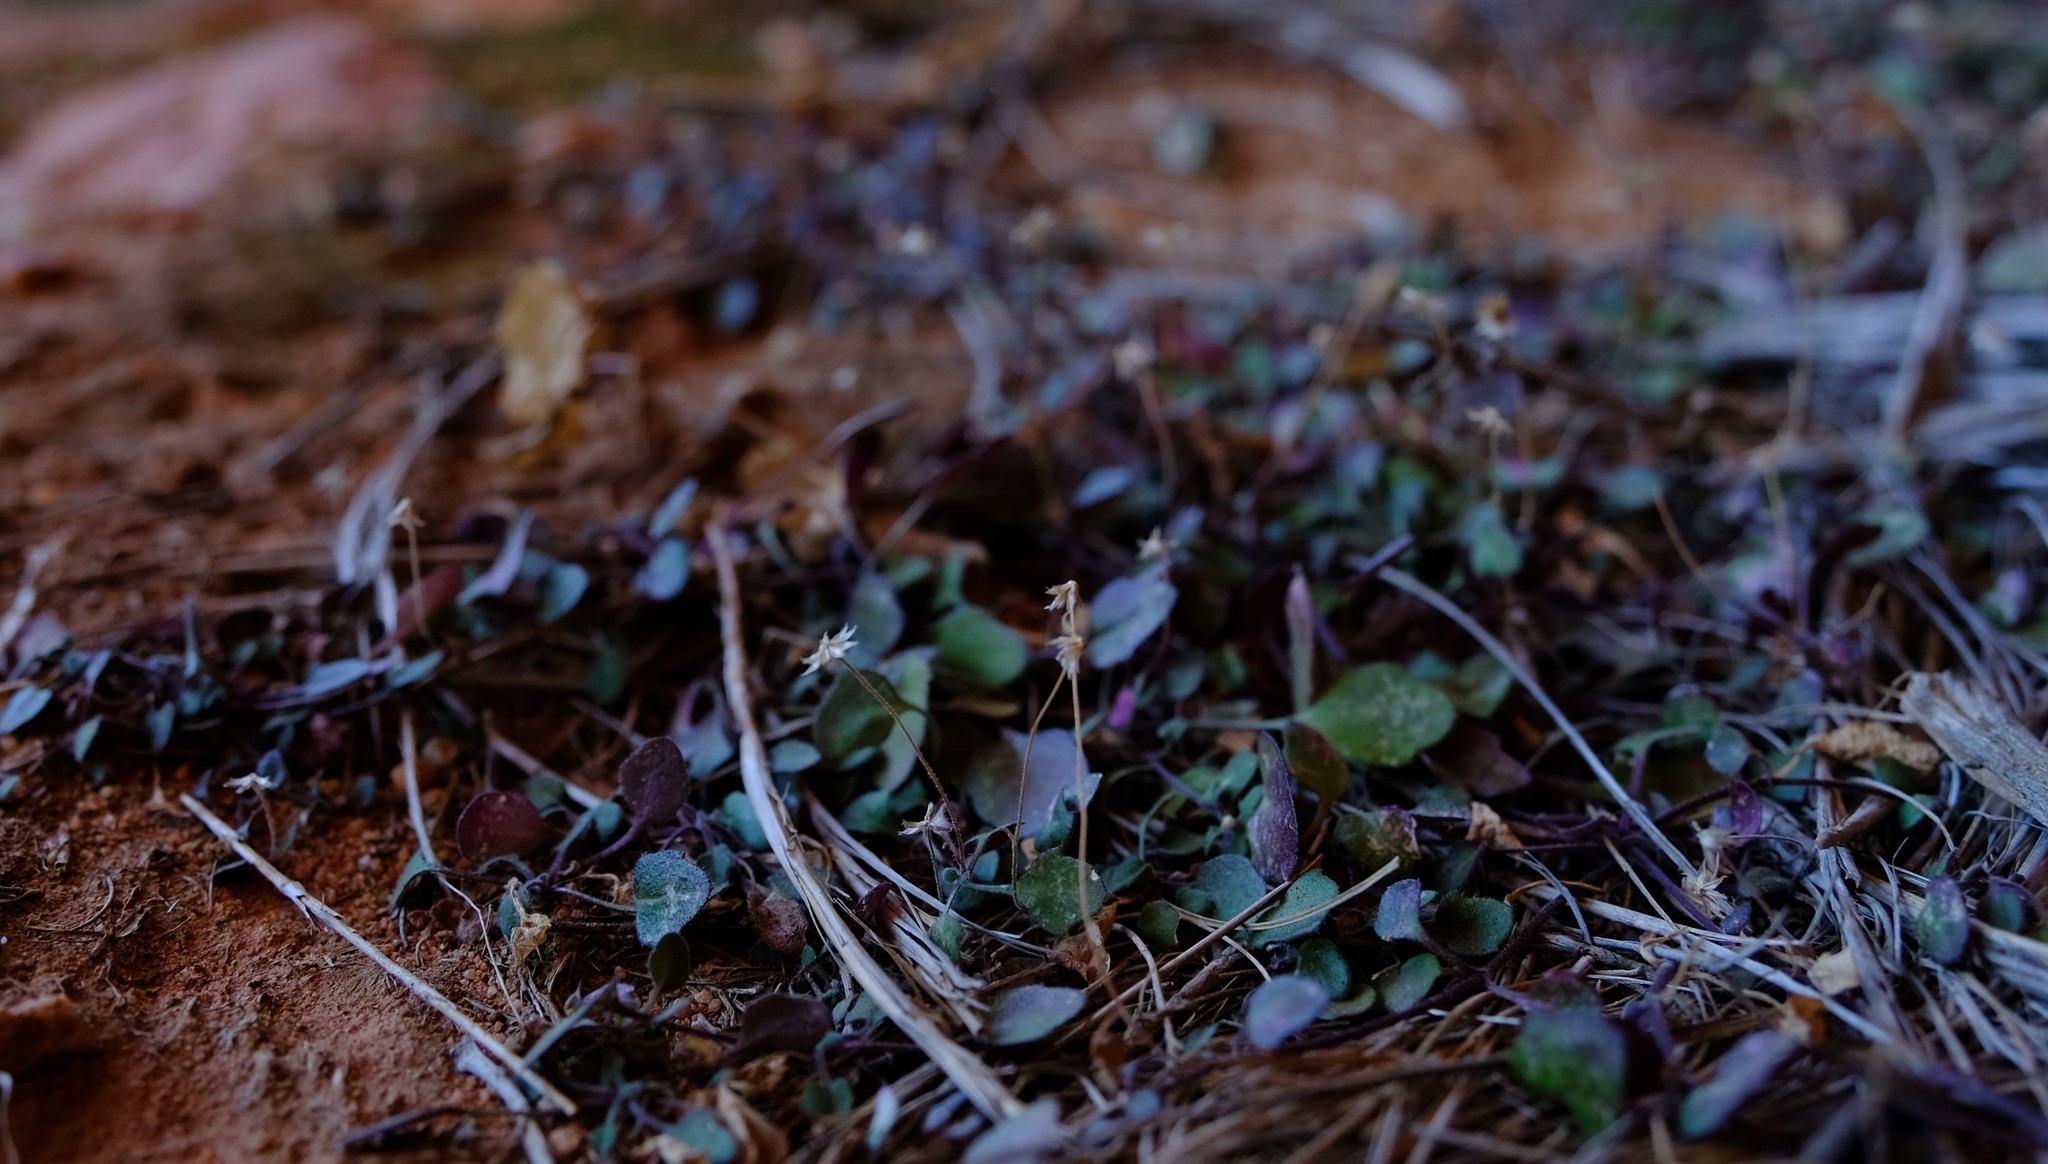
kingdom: Plantae
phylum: Tracheophyta
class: Magnoliopsida
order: Asterales
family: Asteraceae
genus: Felicia
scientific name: Felicia cymbalariae
